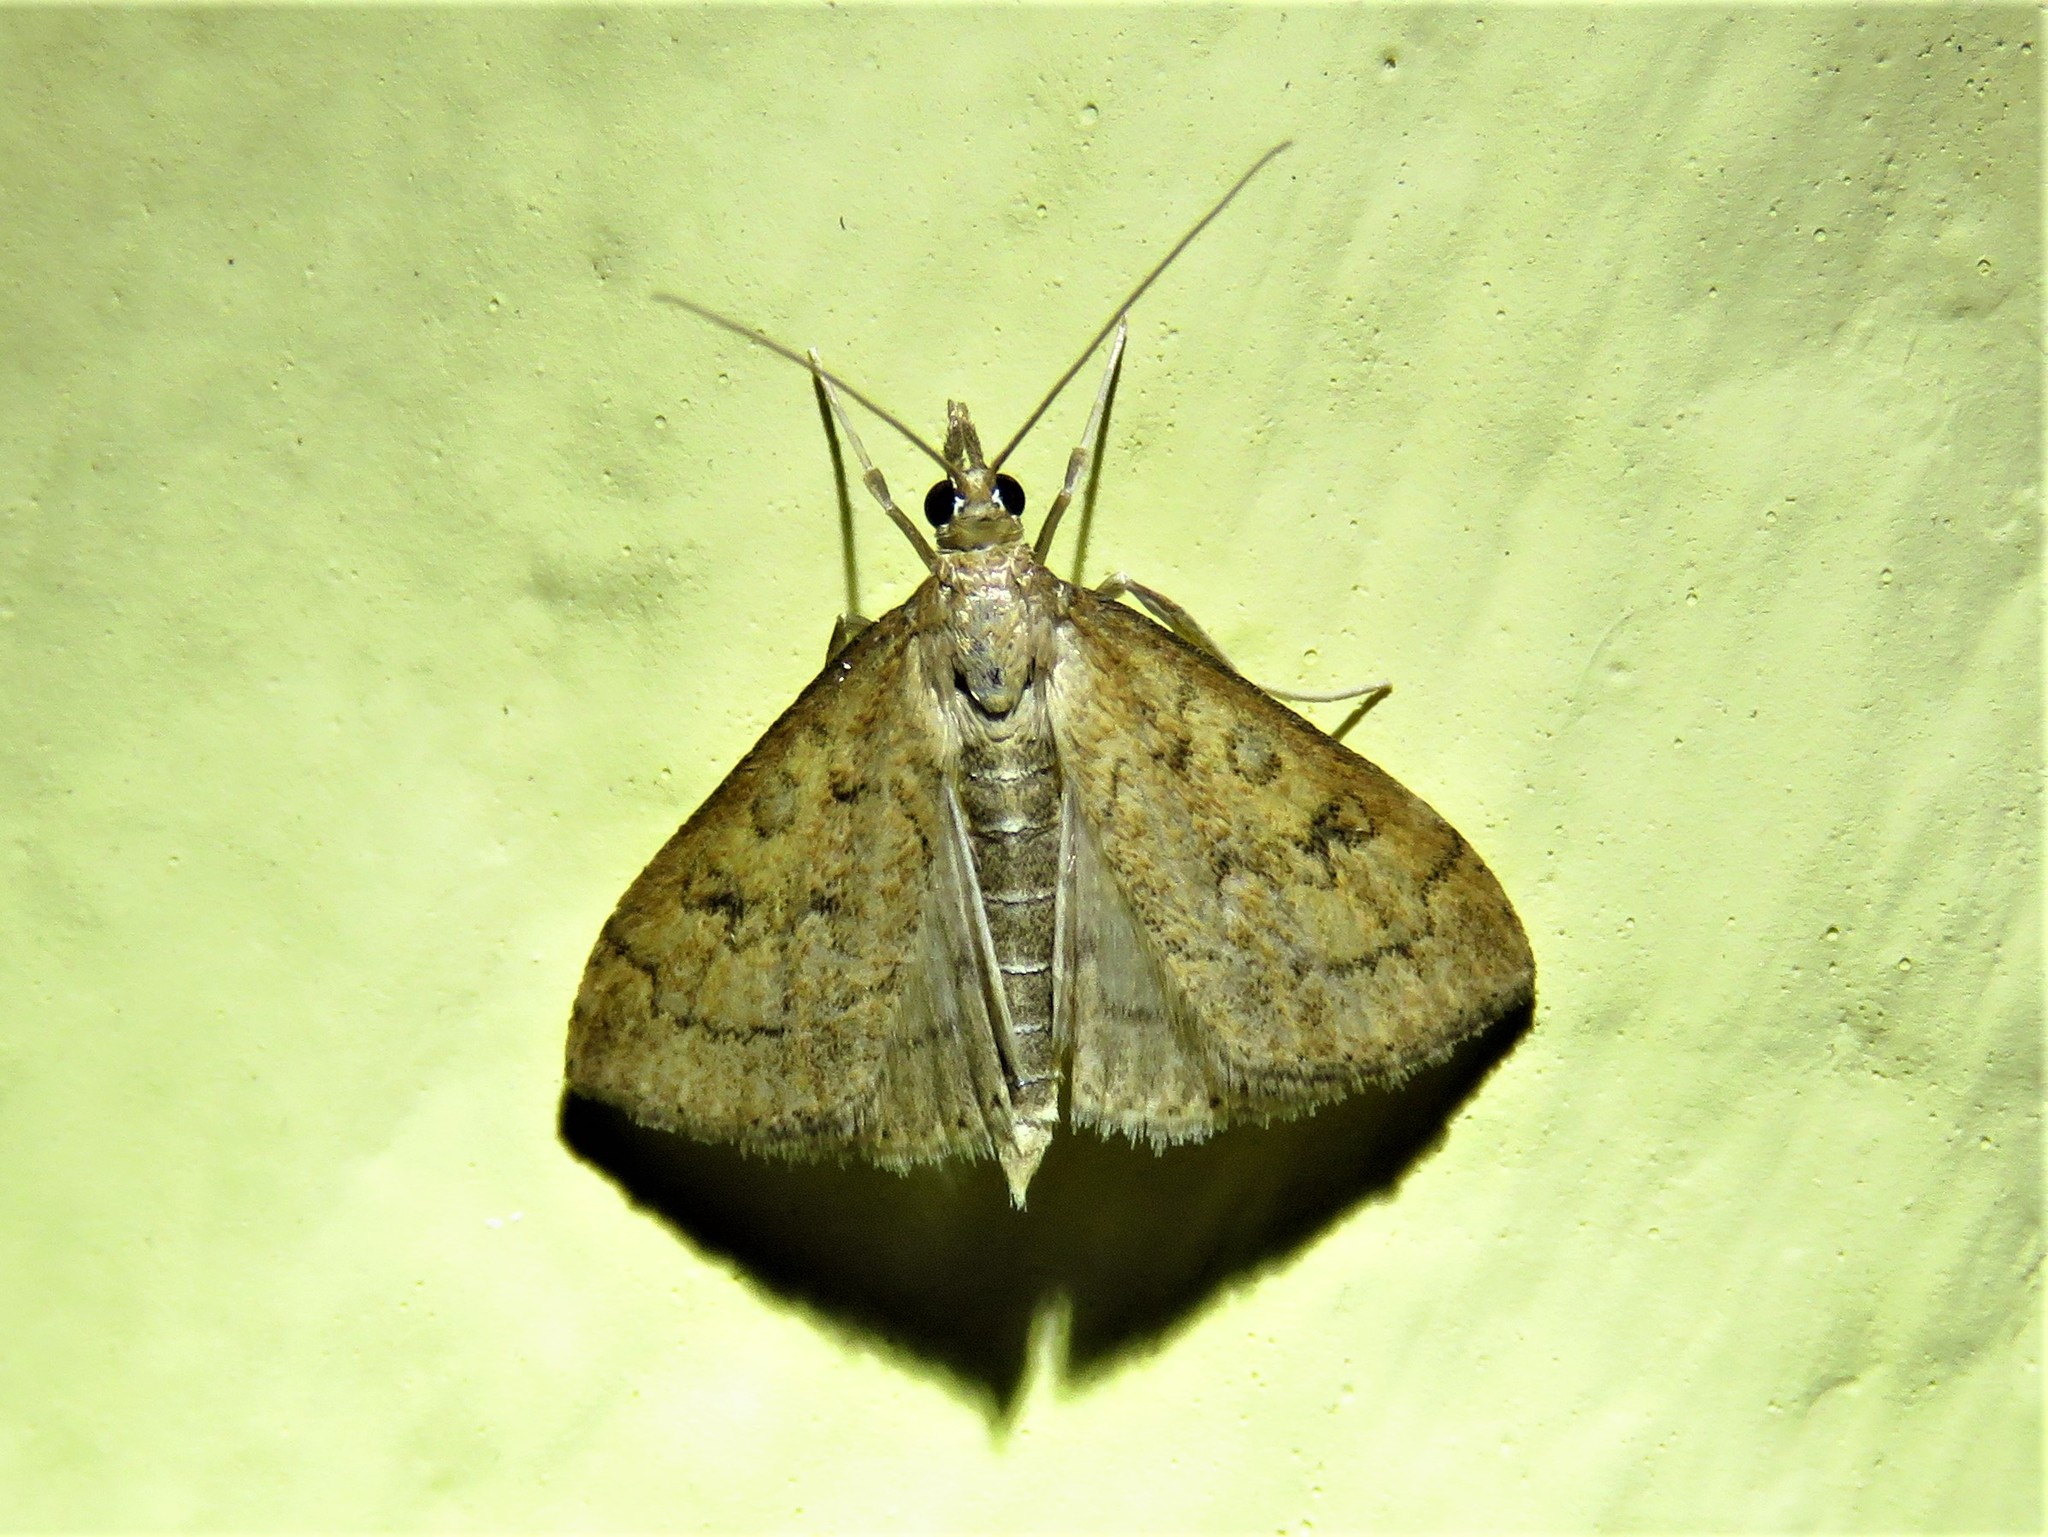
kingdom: Animalia
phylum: Arthropoda
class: Insecta
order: Lepidoptera
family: Crambidae
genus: Udea
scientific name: Udea rubigalis
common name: Celery leaftier moth
